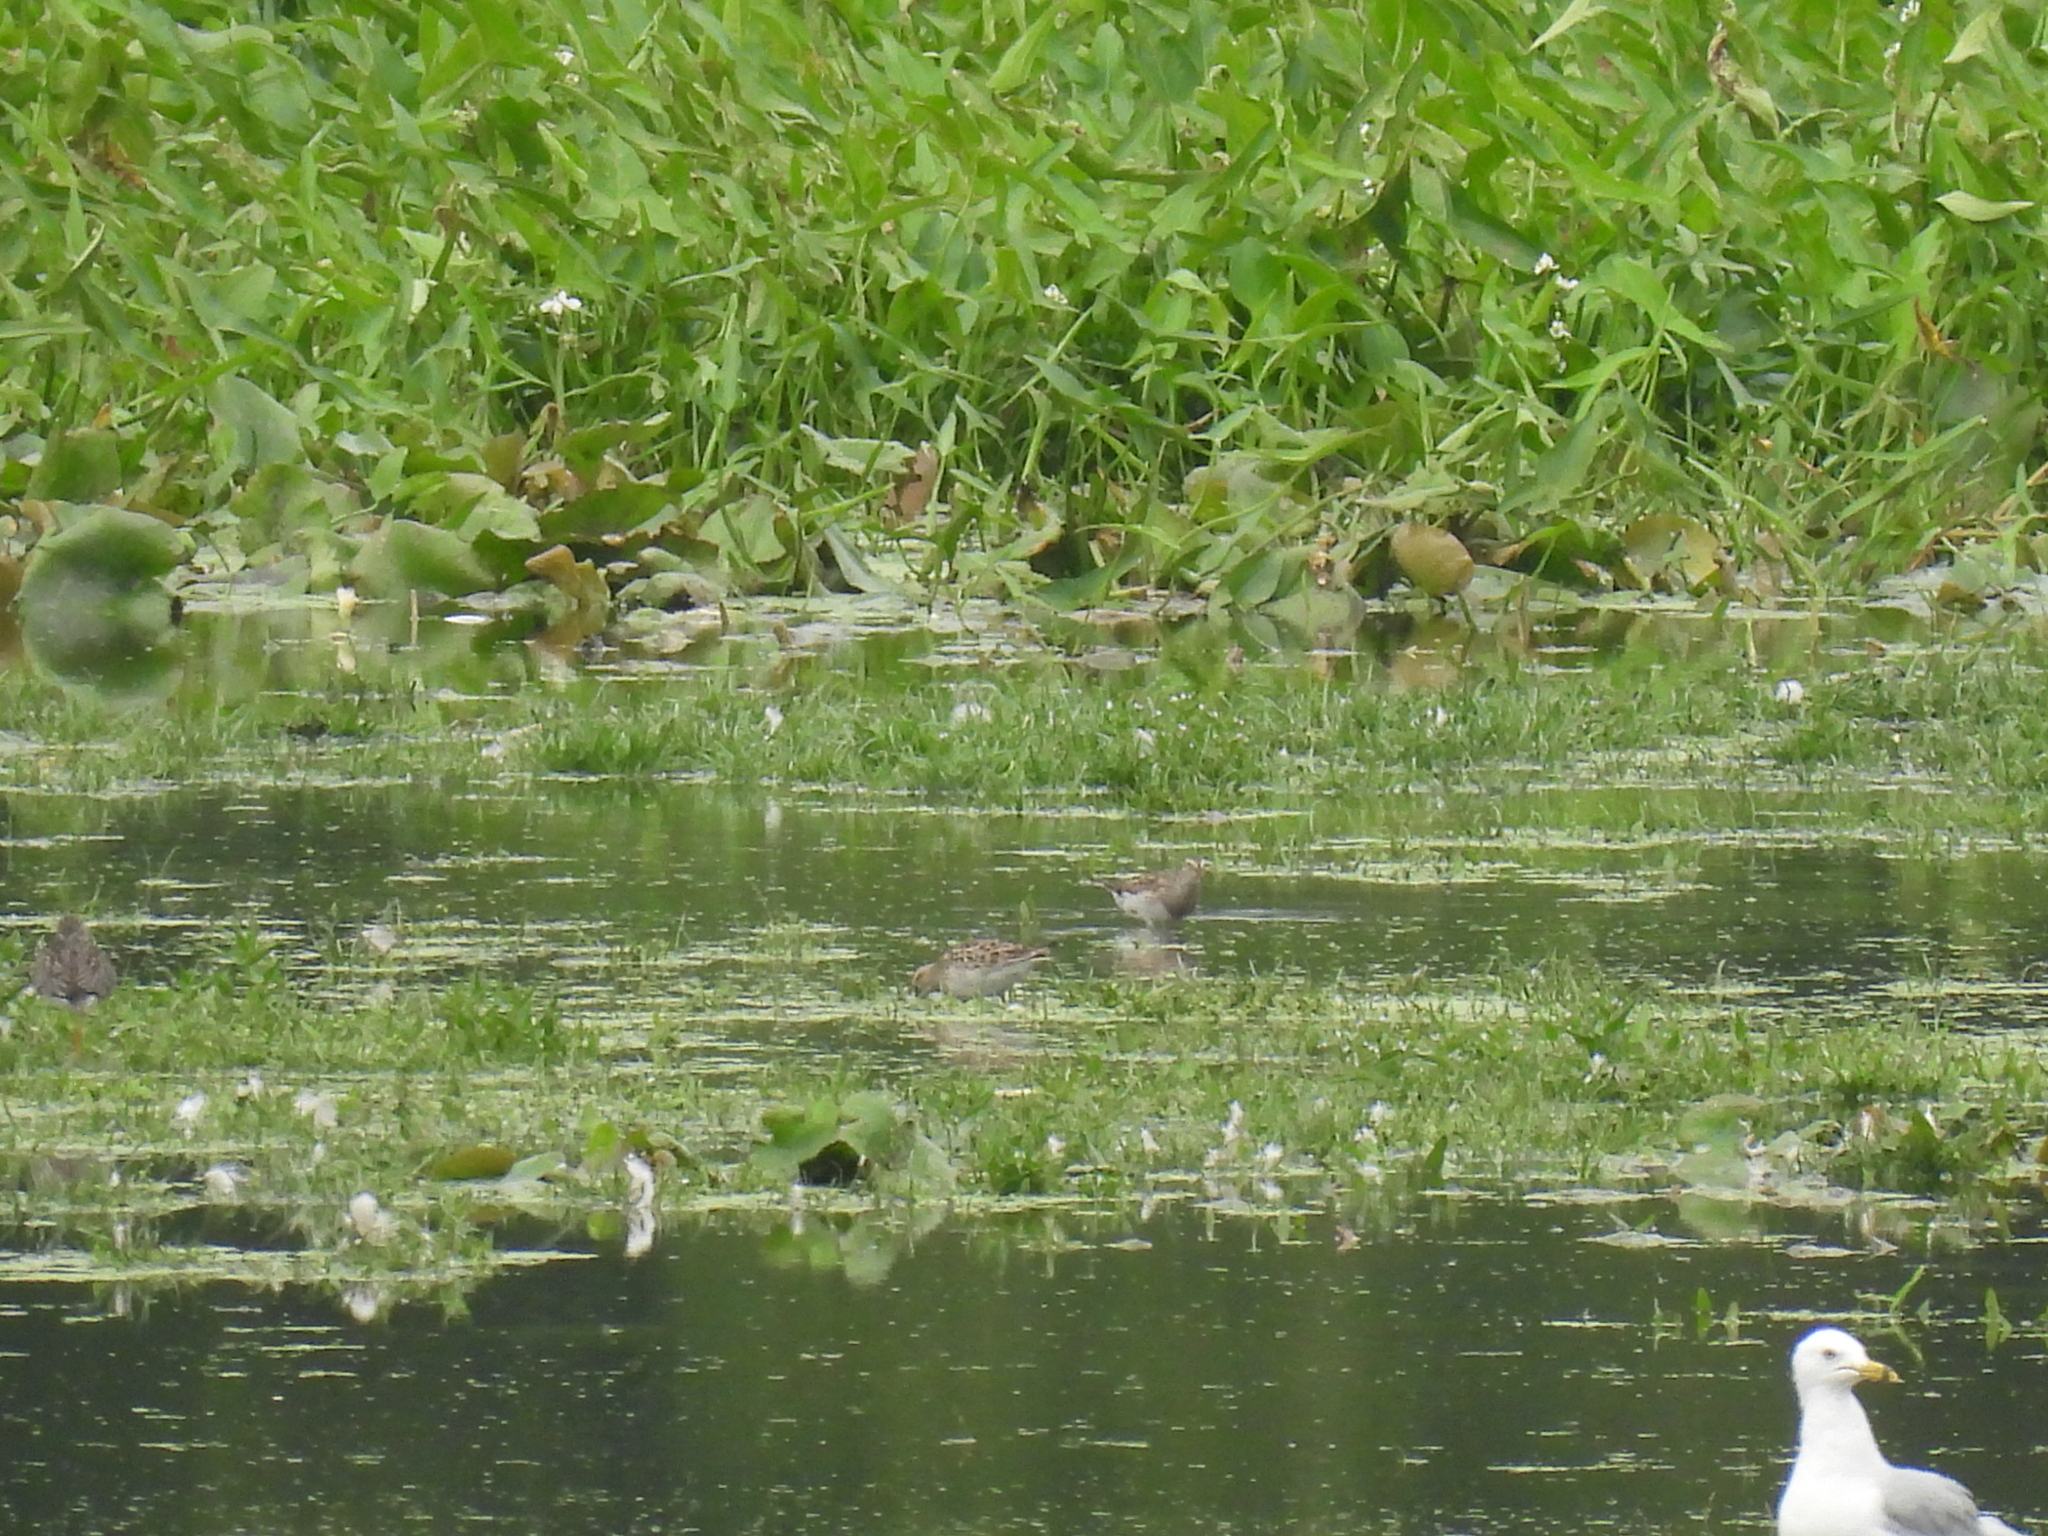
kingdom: Animalia
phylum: Chordata
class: Aves
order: Charadriiformes
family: Scolopacidae
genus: Calidris
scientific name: Calidris melanotos
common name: Pectoral sandpiper
